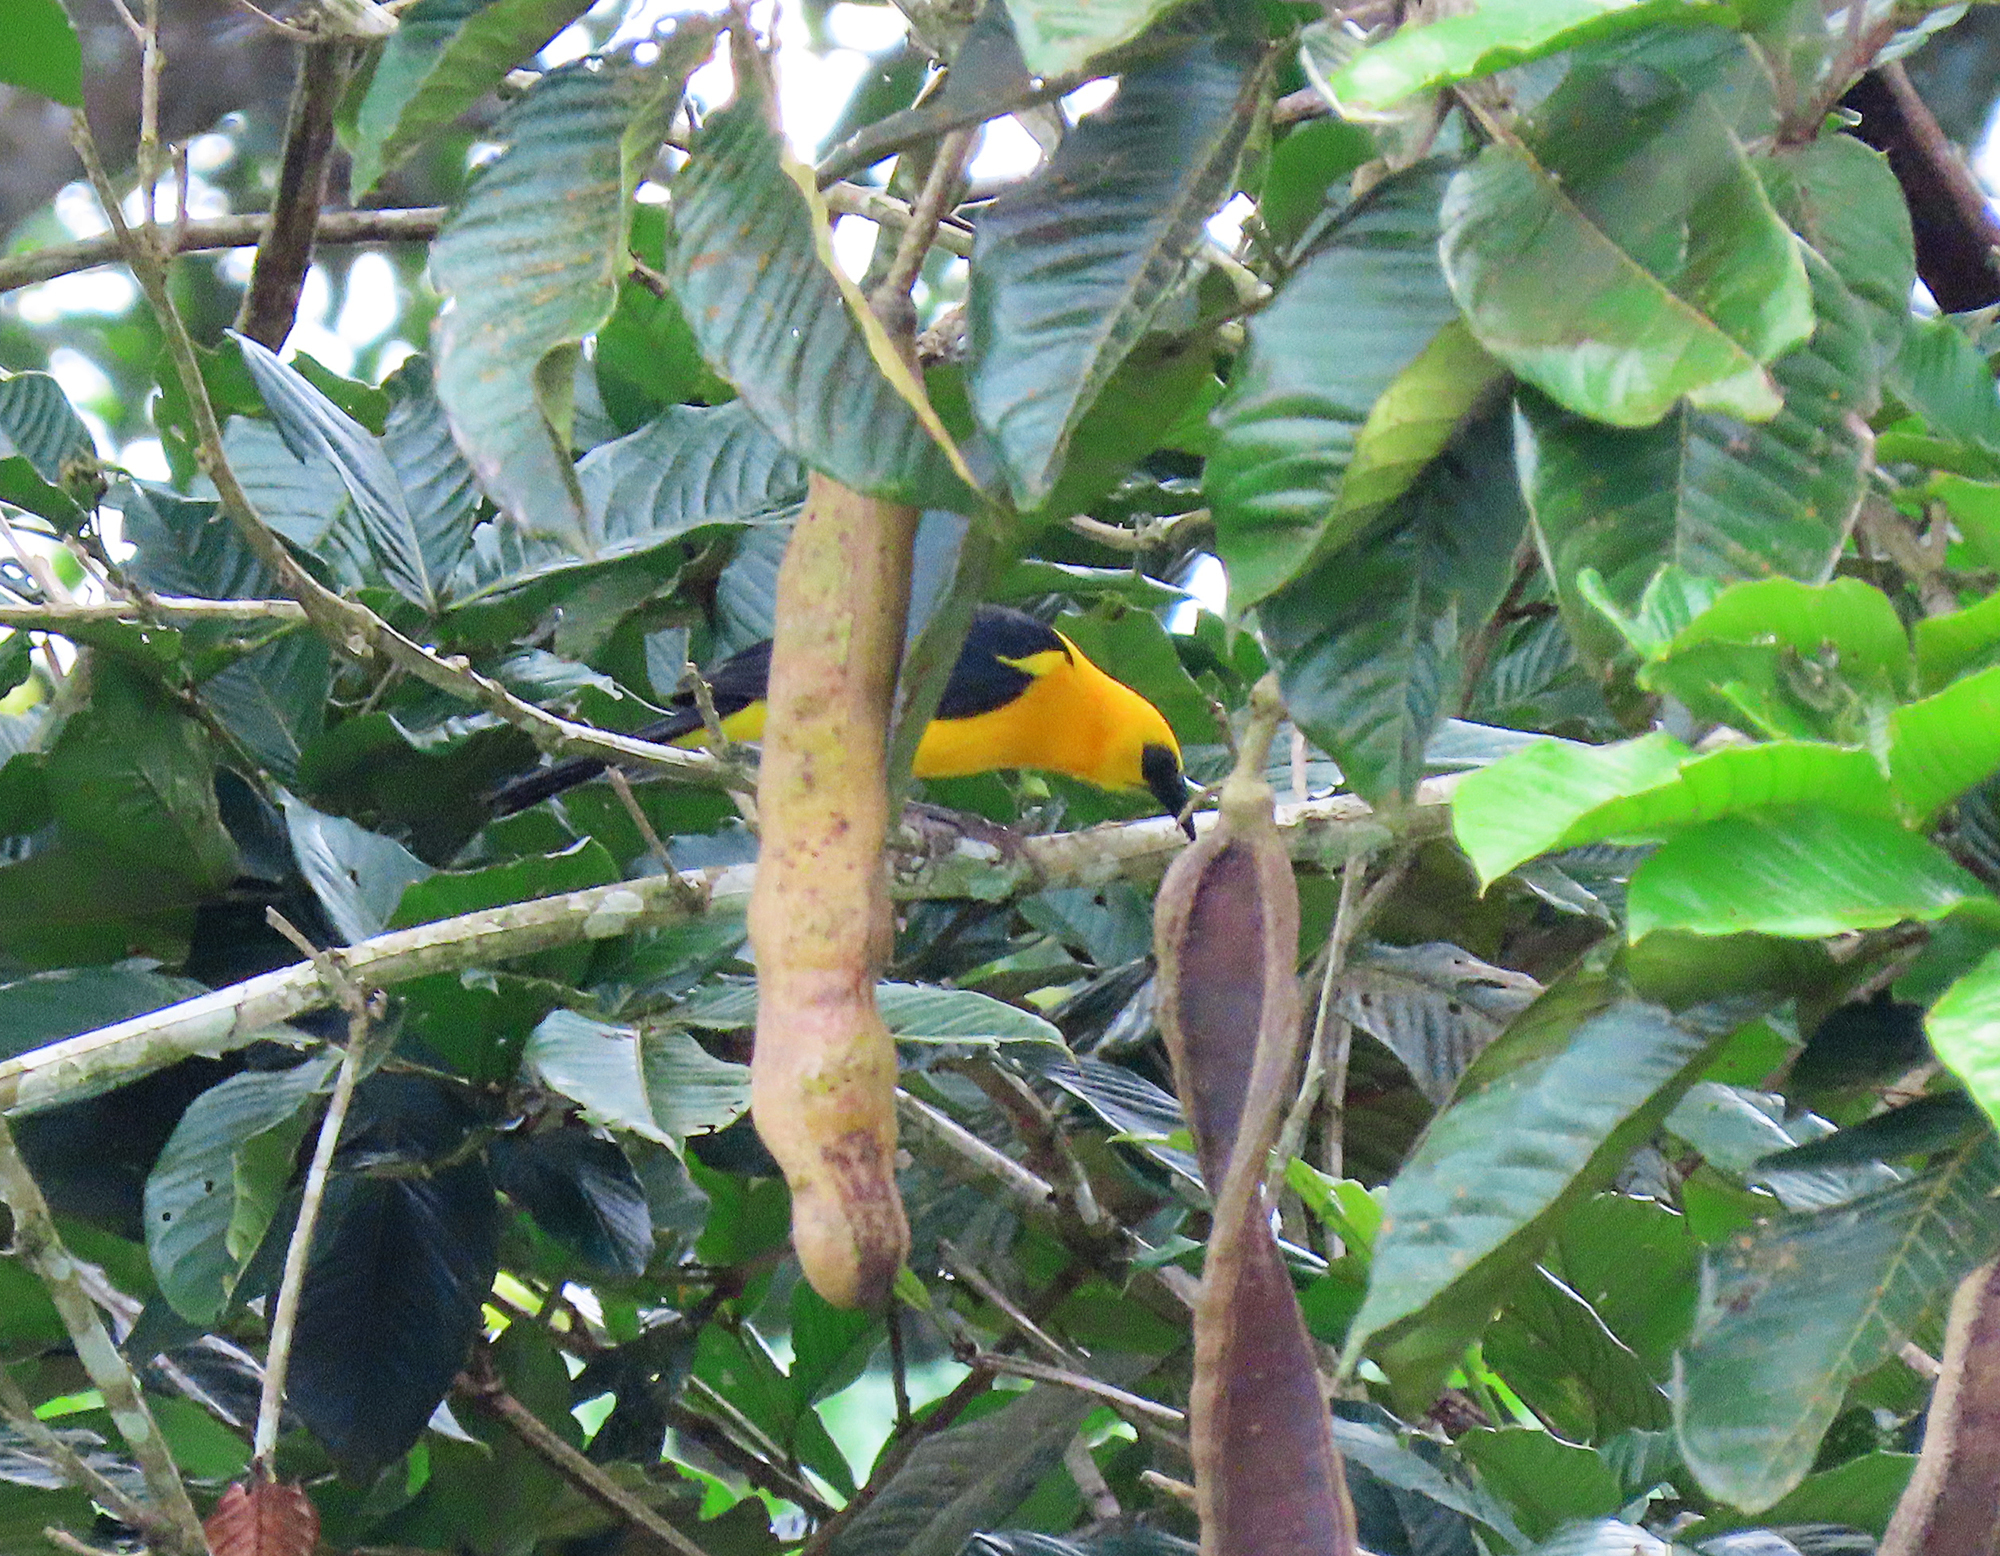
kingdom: Animalia
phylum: Chordata
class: Aves
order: Passeriformes
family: Icteridae
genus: Gymnomystax
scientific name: Gymnomystax mexicanus
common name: Oriole blackbird
